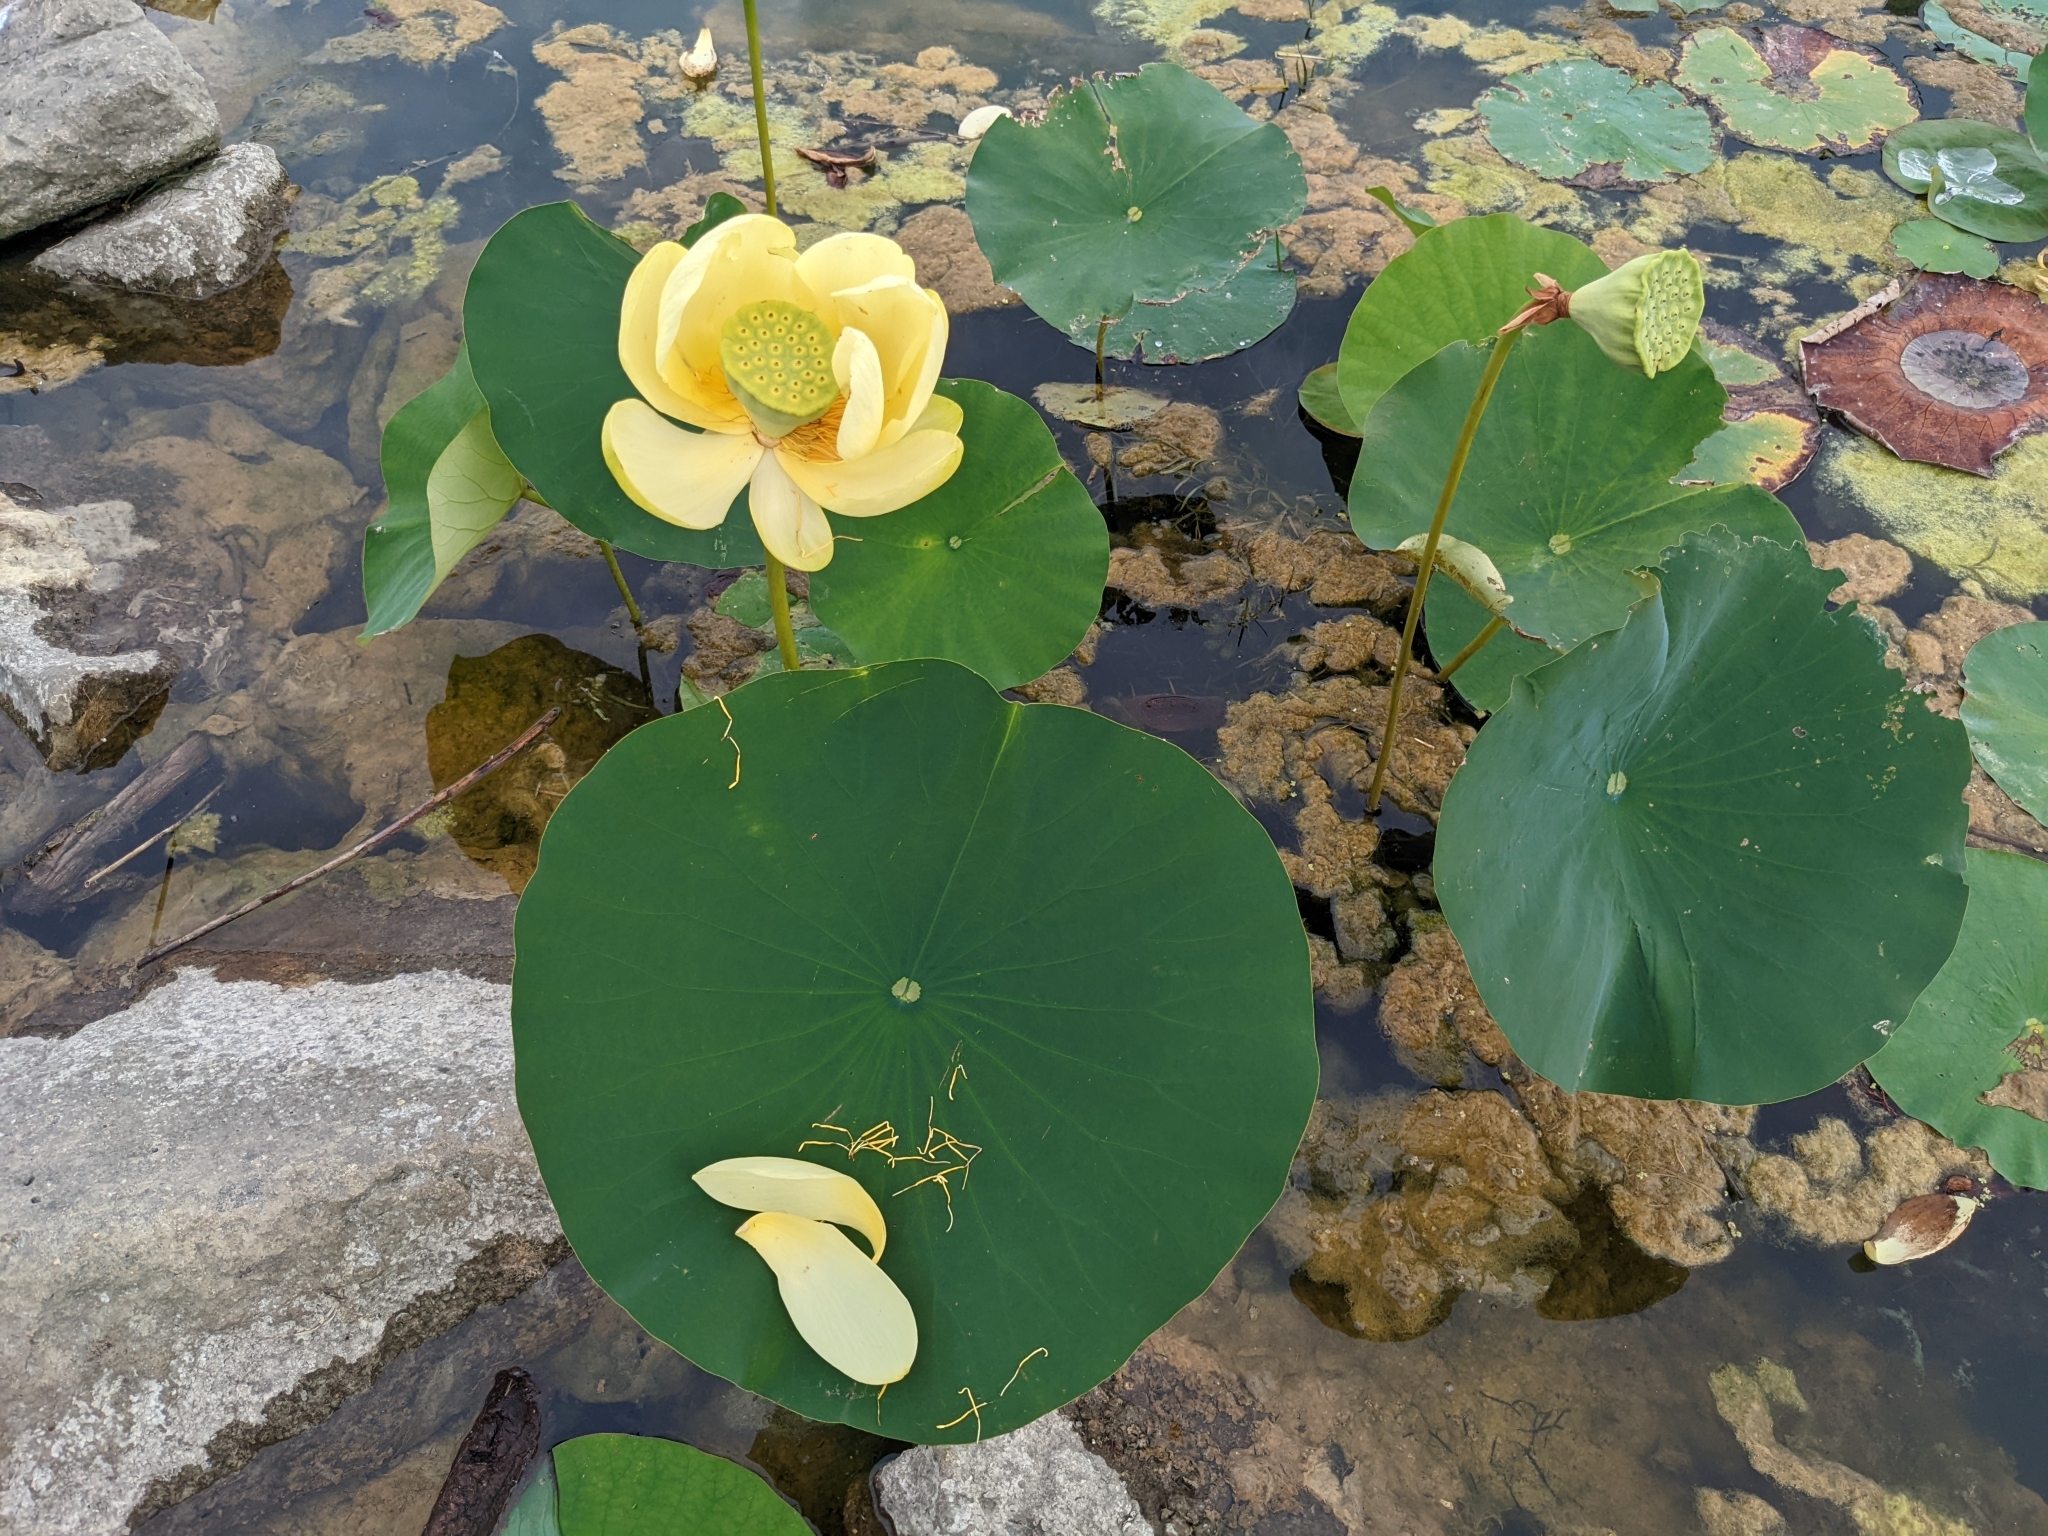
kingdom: Plantae
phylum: Tracheophyta
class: Magnoliopsida
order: Proteales
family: Nelumbonaceae
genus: Nelumbo
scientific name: Nelumbo lutea
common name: American lotus
